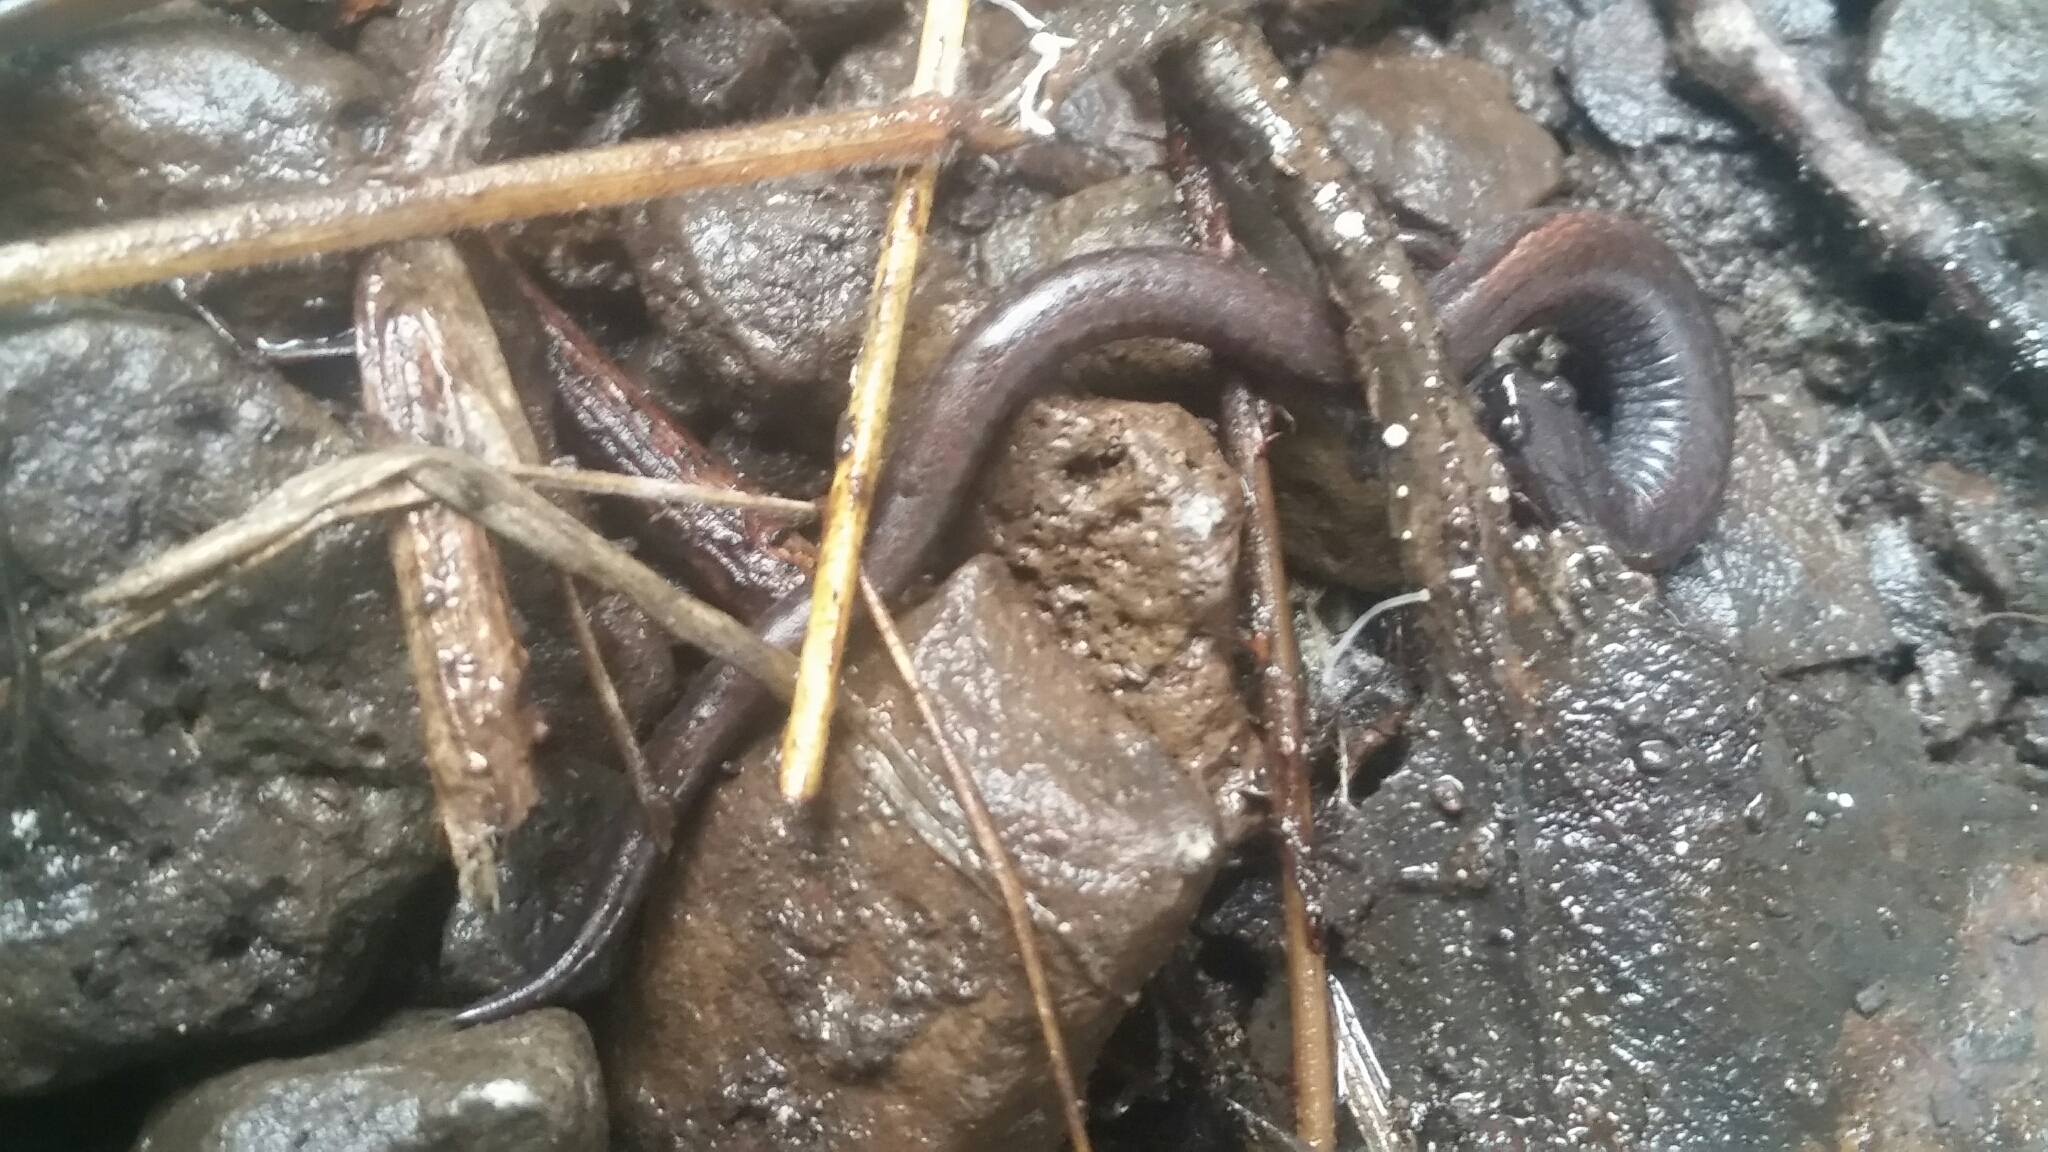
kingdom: Animalia
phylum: Chordata
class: Amphibia
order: Caudata
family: Plethodontidae
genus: Batrachoseps
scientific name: Batrachoseps attenuatus
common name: California slender salamander
